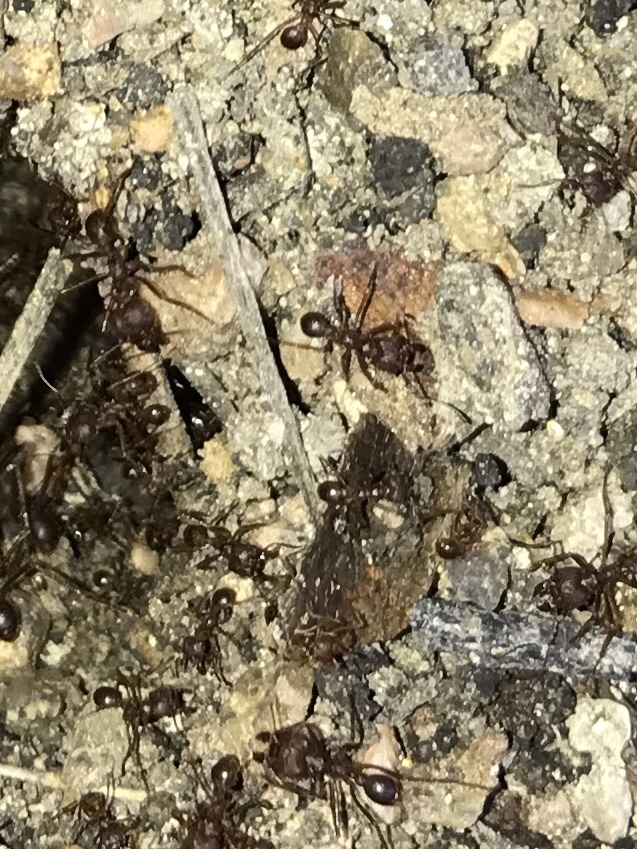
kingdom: Animalia
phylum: Arthropoda
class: Insecta
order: Hymenoptera
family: Formicidae
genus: Atta
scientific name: Atta texana
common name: Texas leafcutting ant
